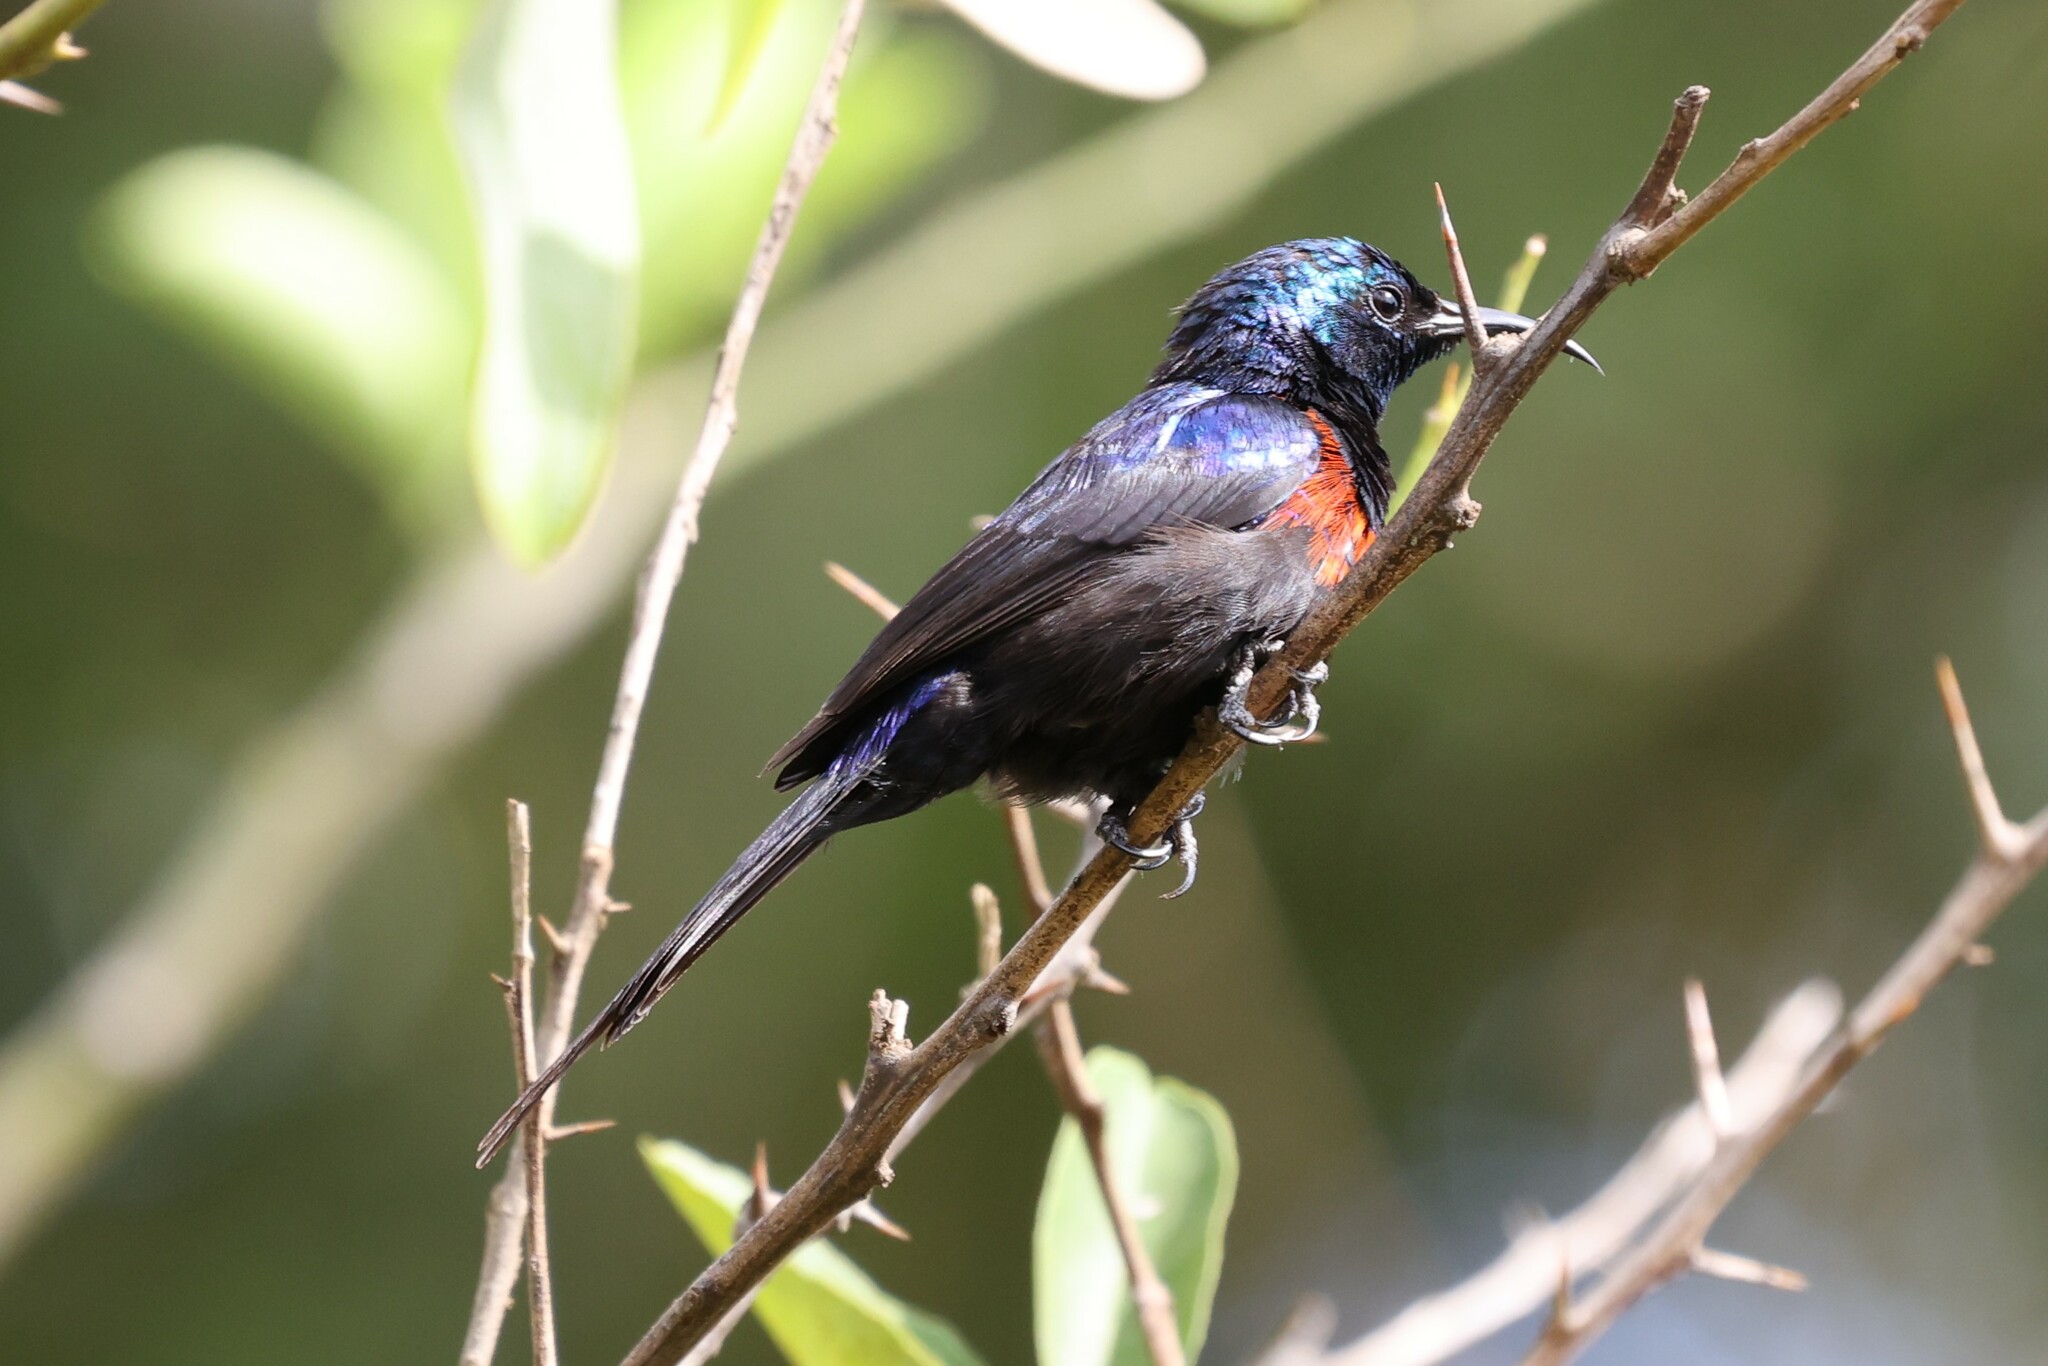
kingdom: Animalia
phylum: Chordata
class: Aves
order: Passeriformes
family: Nectariniidae
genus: Cinnyris
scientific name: Cinnyris erythrocercus
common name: Red-chested sunbird
